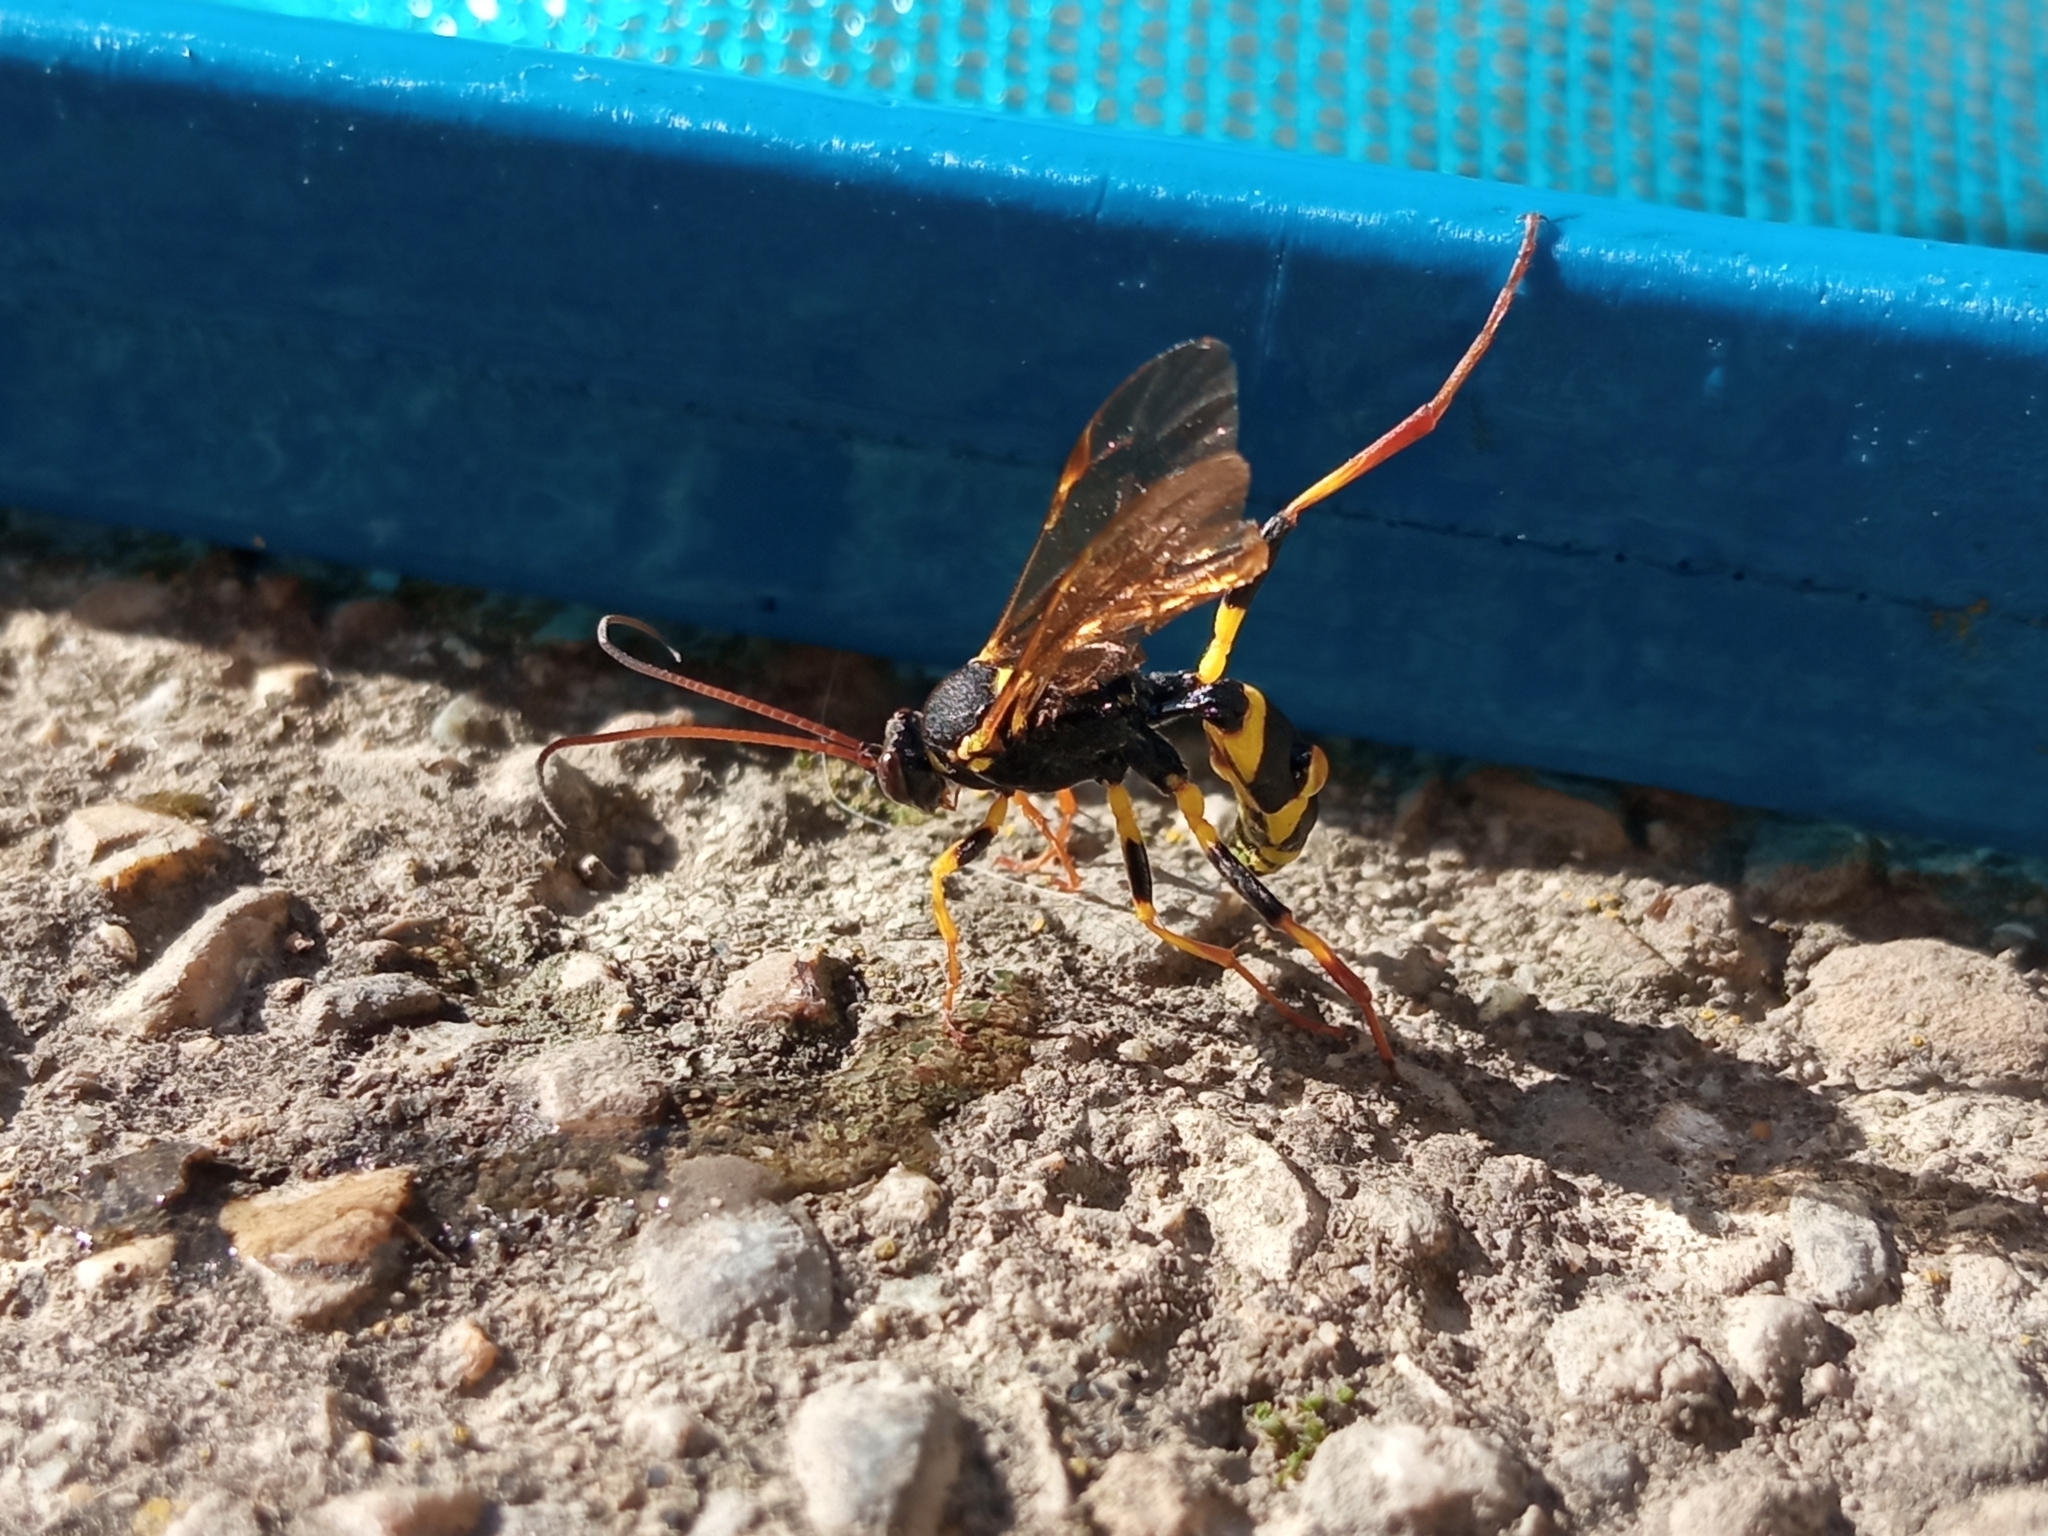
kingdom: Animalia
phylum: Arthropoda
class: Insecta
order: Hymenoptera
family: Ichneumonidae
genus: Amblyteles
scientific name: Amblyteles armatorius
